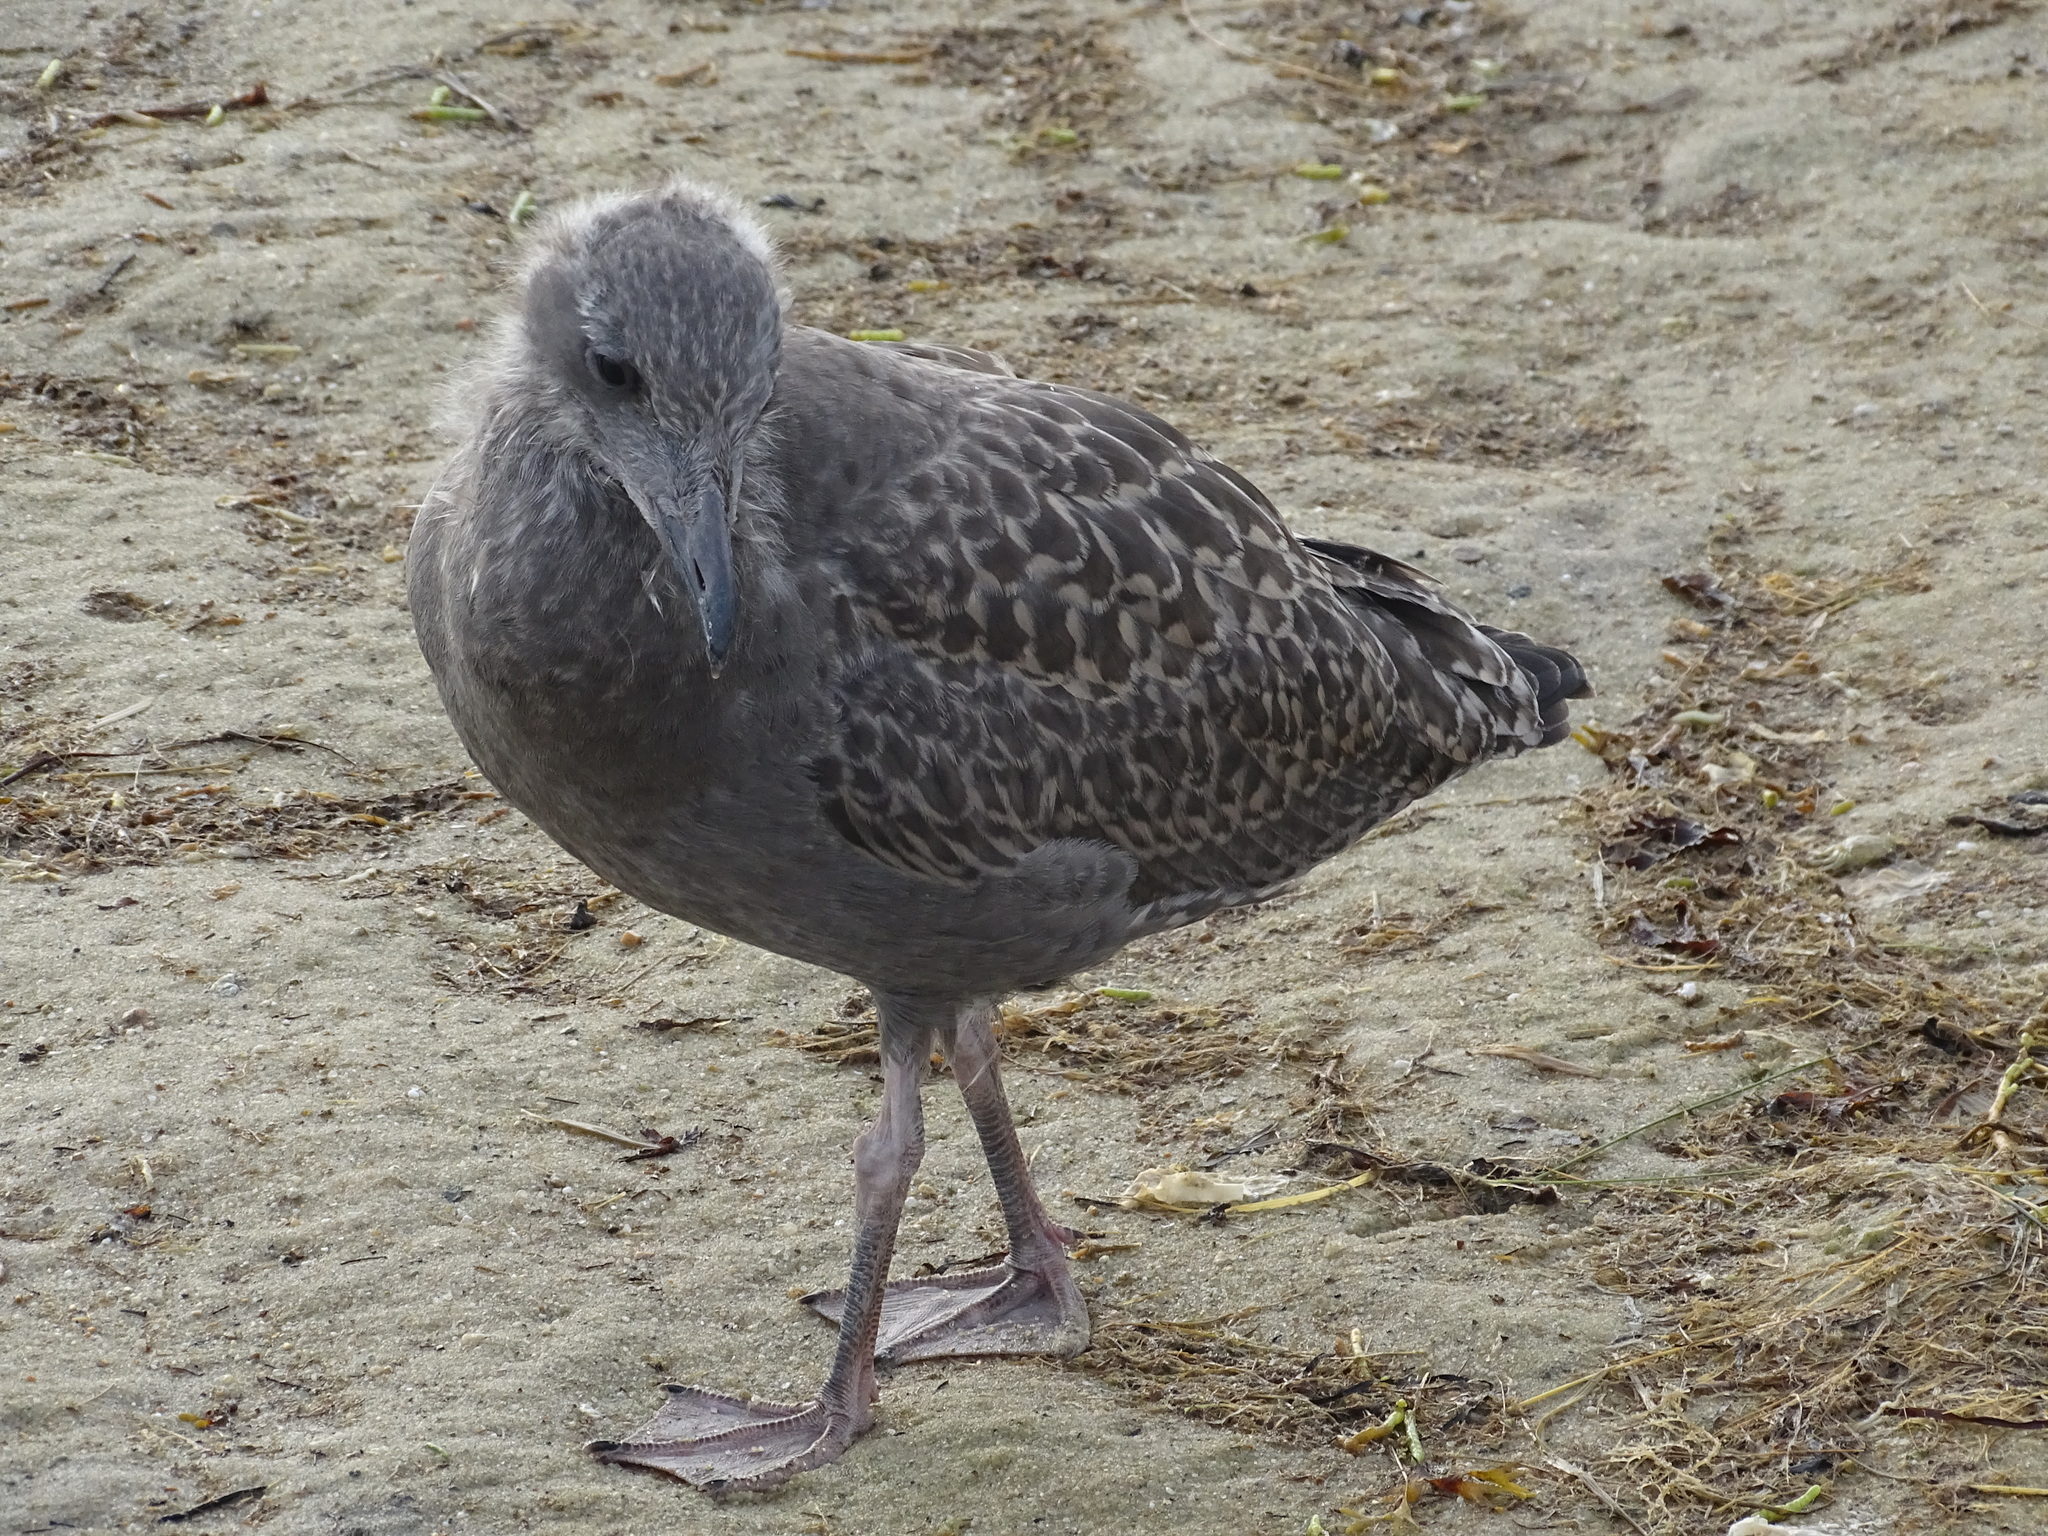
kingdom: Animalia
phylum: Chordata
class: Aves
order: Charadriiformes
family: Laridae
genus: Larus
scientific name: Larus argentatus
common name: Herring gull
